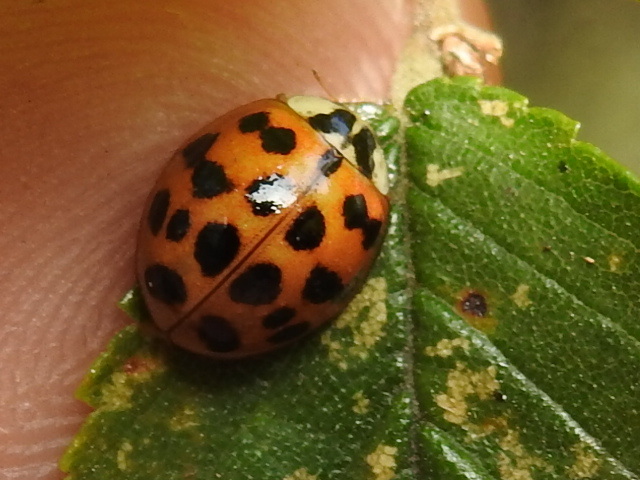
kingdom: Animalia
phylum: Arthropoda
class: Insecta
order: Coleoptera
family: Coccinellidae
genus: Harmonia
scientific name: Harmonia axyridis
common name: Harlequin ladybird
